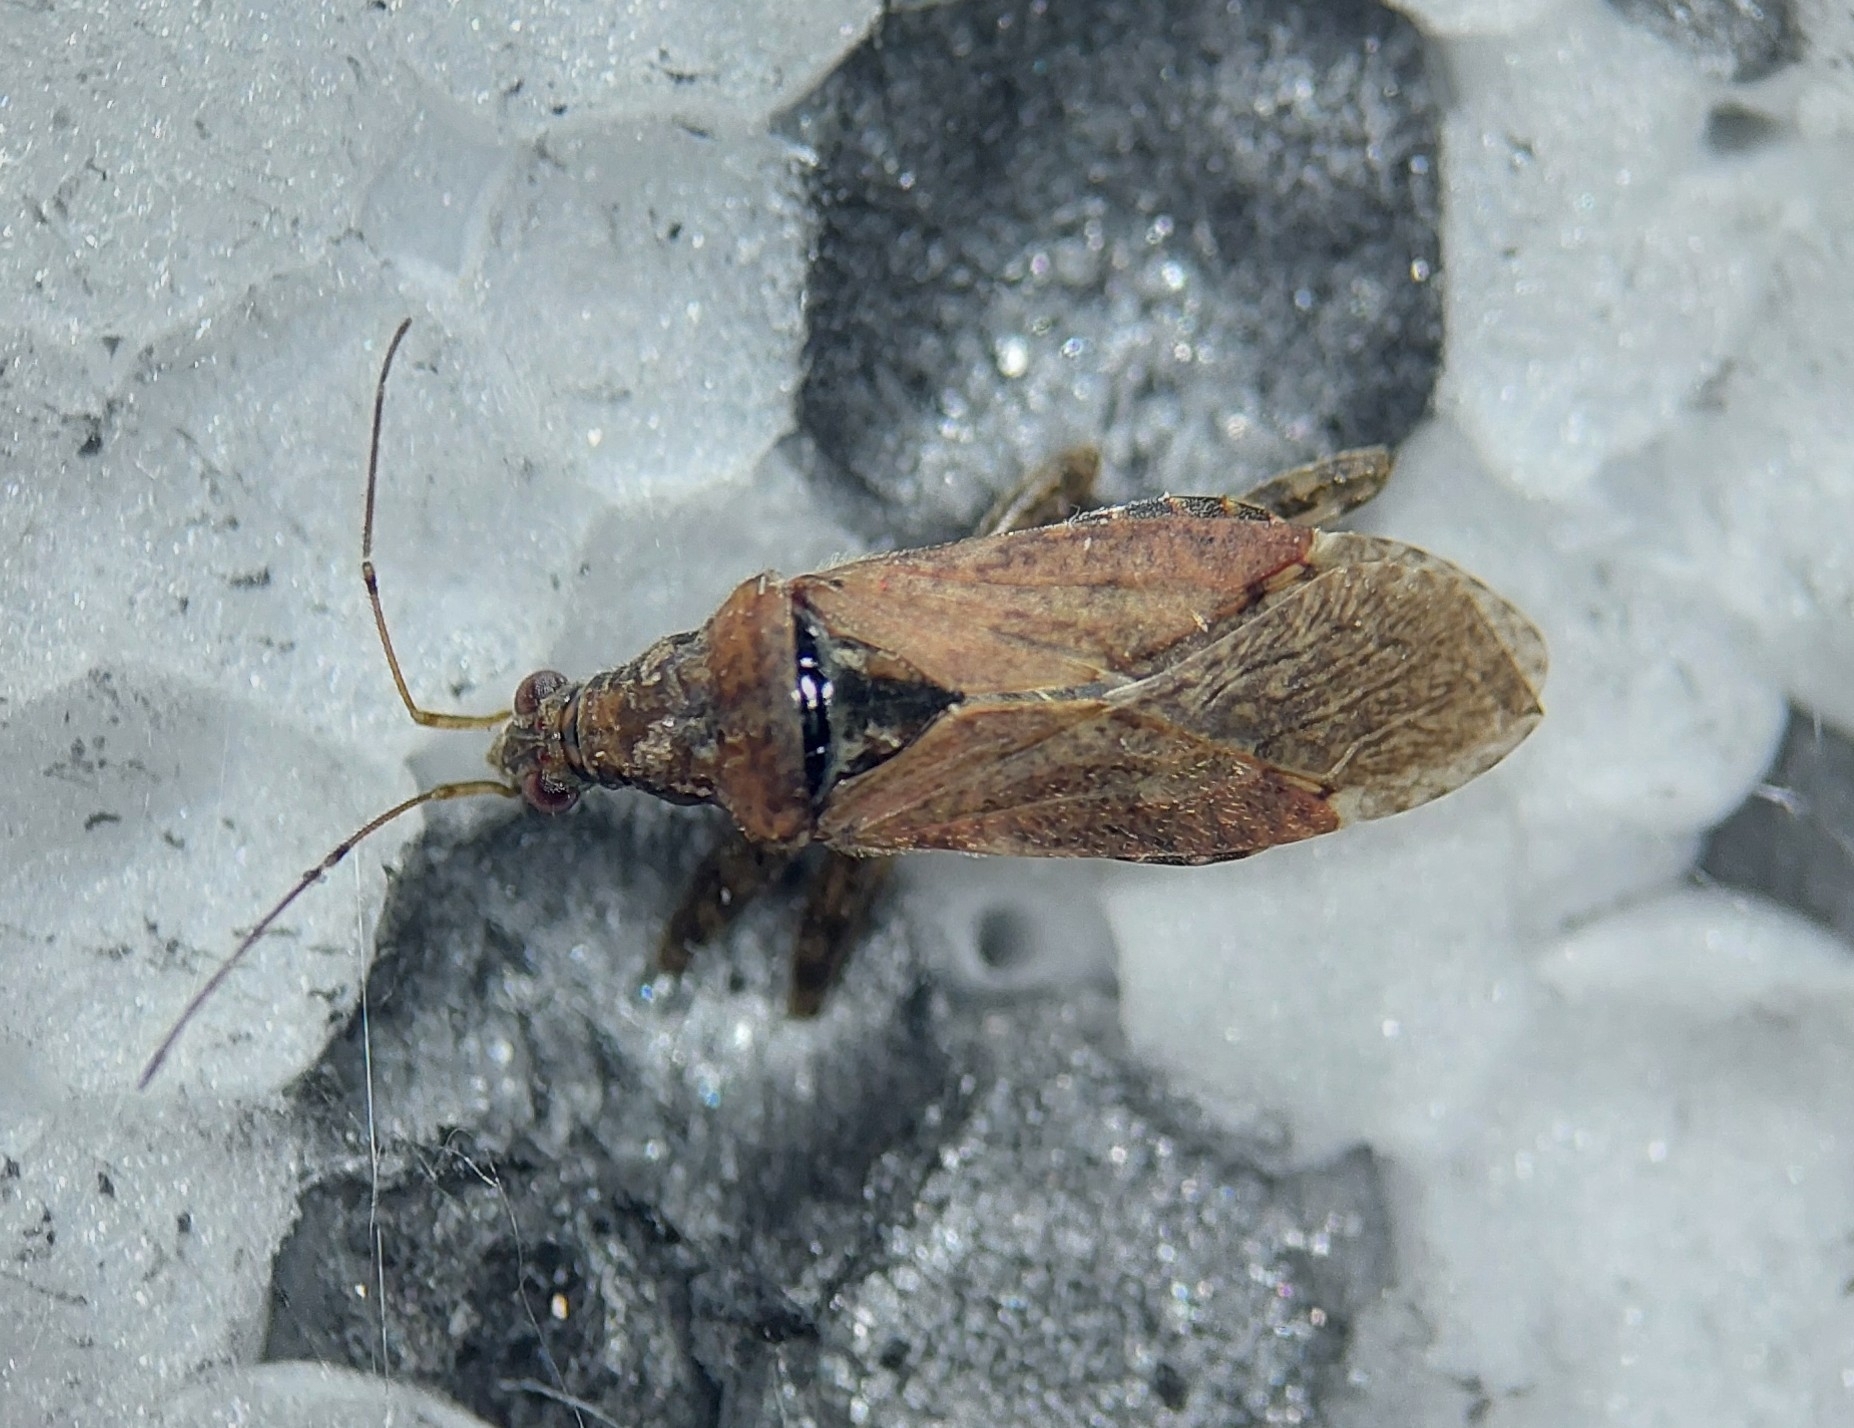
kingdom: Animalia
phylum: Arthropoda
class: Insecta
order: Hemiptera
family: Nabidae
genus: Himacerus
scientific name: Himacerus mirmicoides
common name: Ant damsel bug
